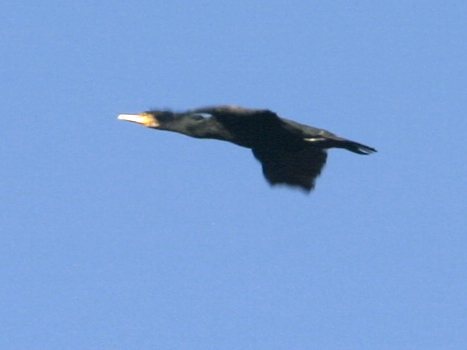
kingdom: Animalia
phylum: Chordata
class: Aves
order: Suliformes
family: Phalacrocoracidae
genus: Phalacrocorax
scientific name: Phalacrocorax carbo
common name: Great cormorant
